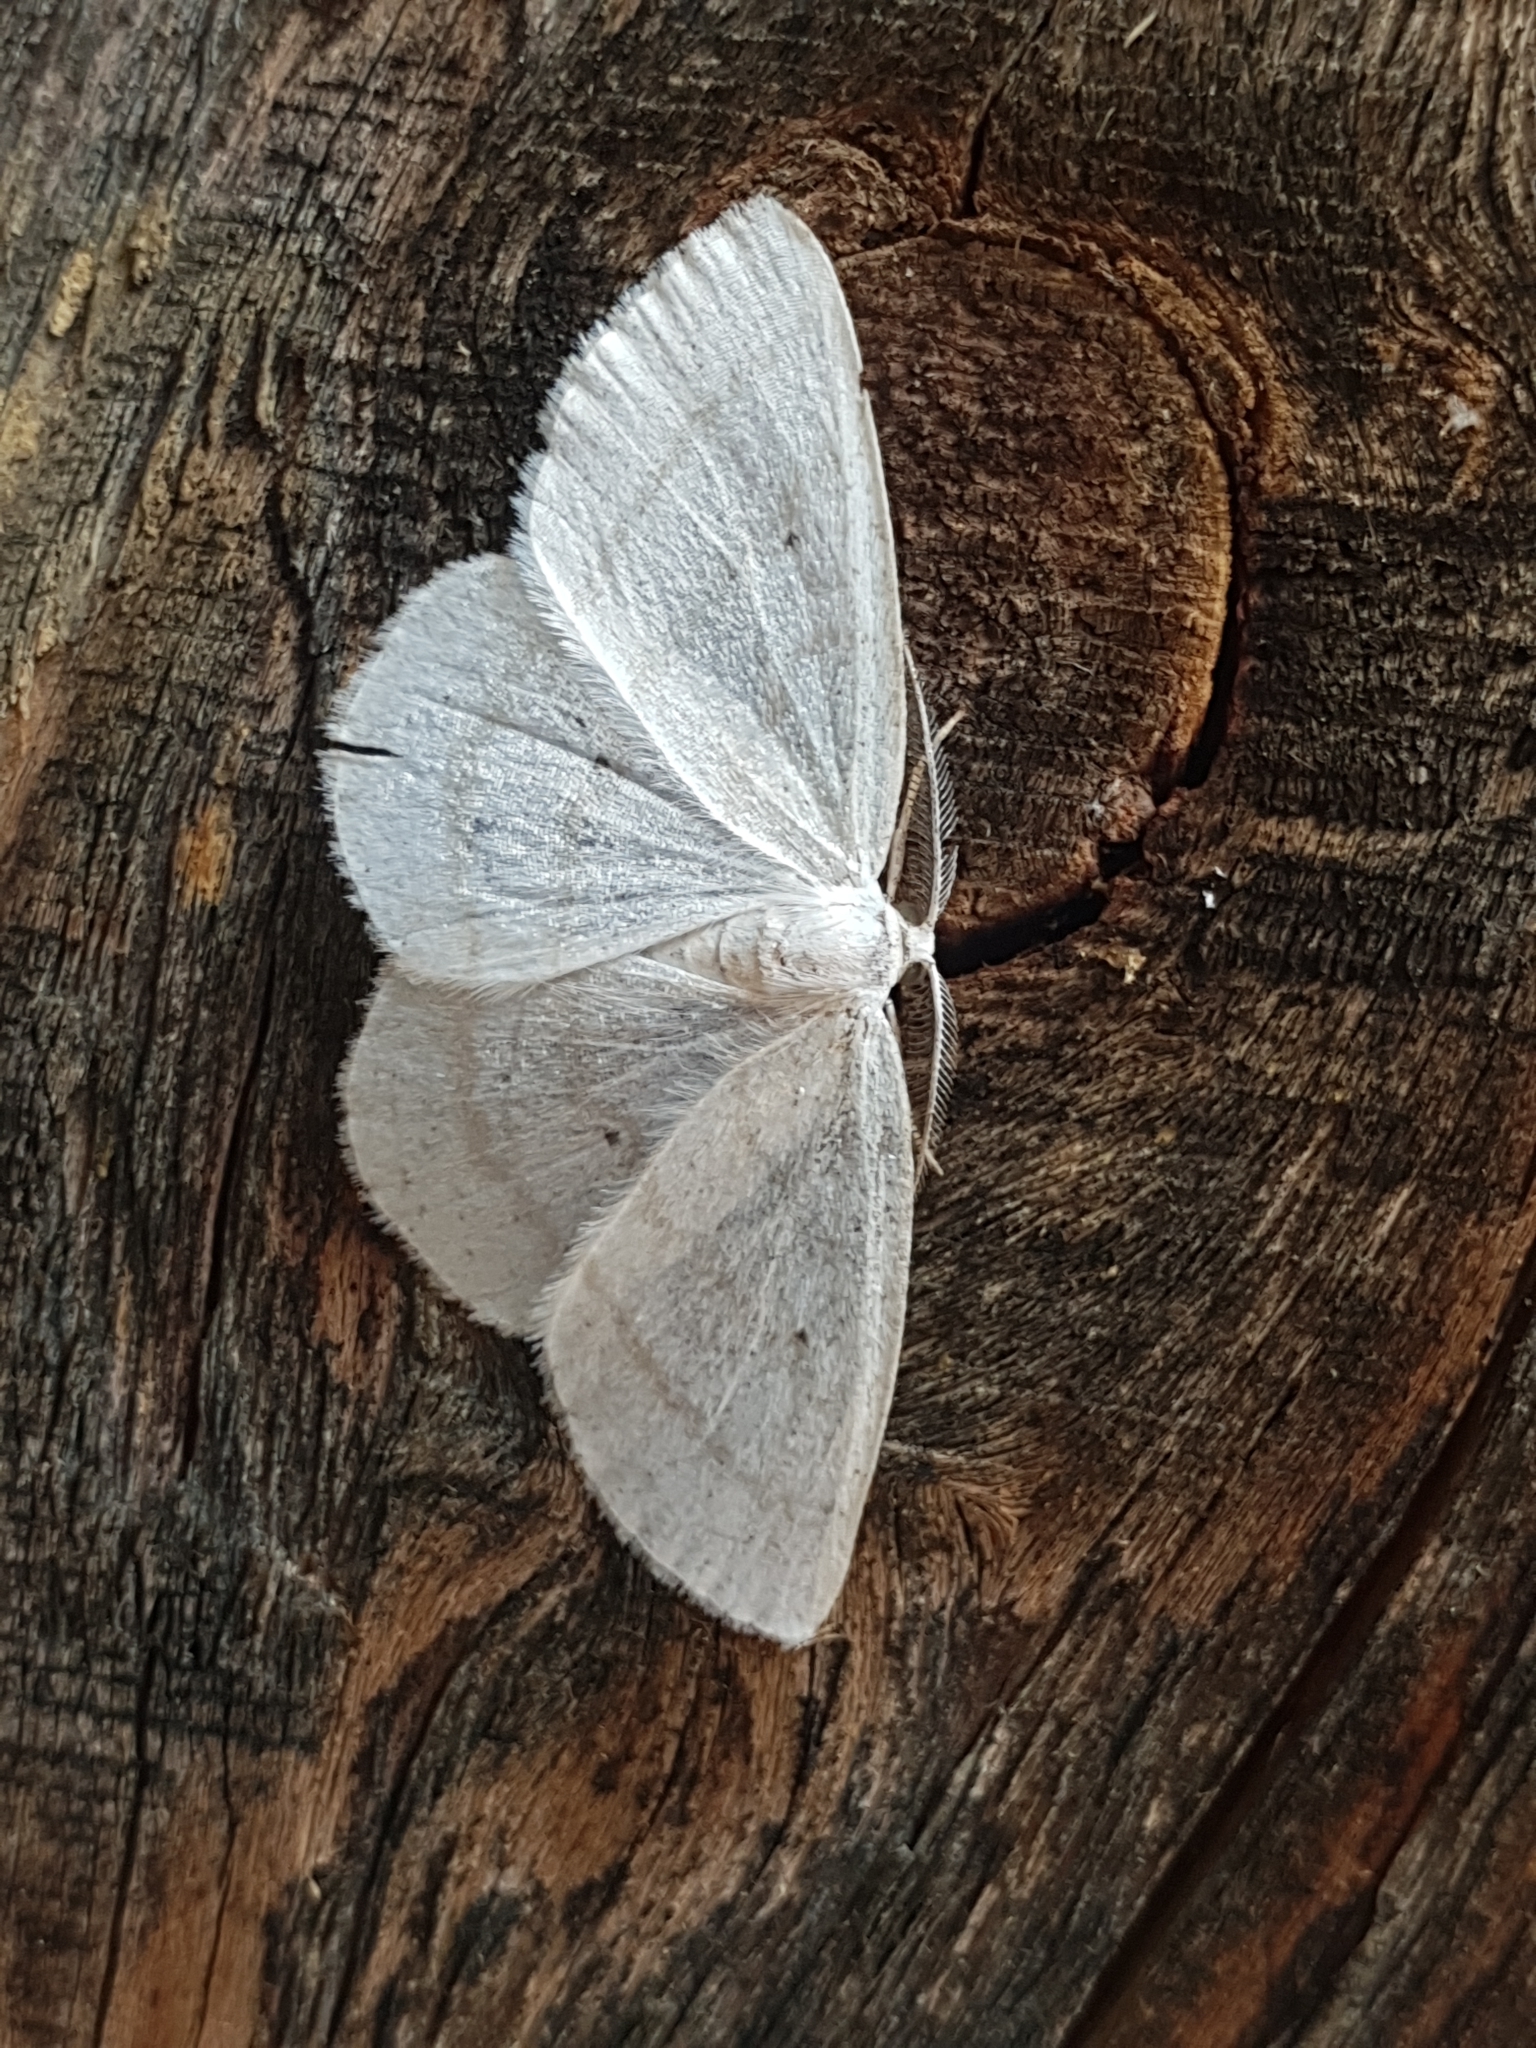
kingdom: Animalia
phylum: Arthropoda
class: Insecta
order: Lepidoptera
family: Geometridae
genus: Cabera
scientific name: Cabera pusaria
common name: Common white wave
